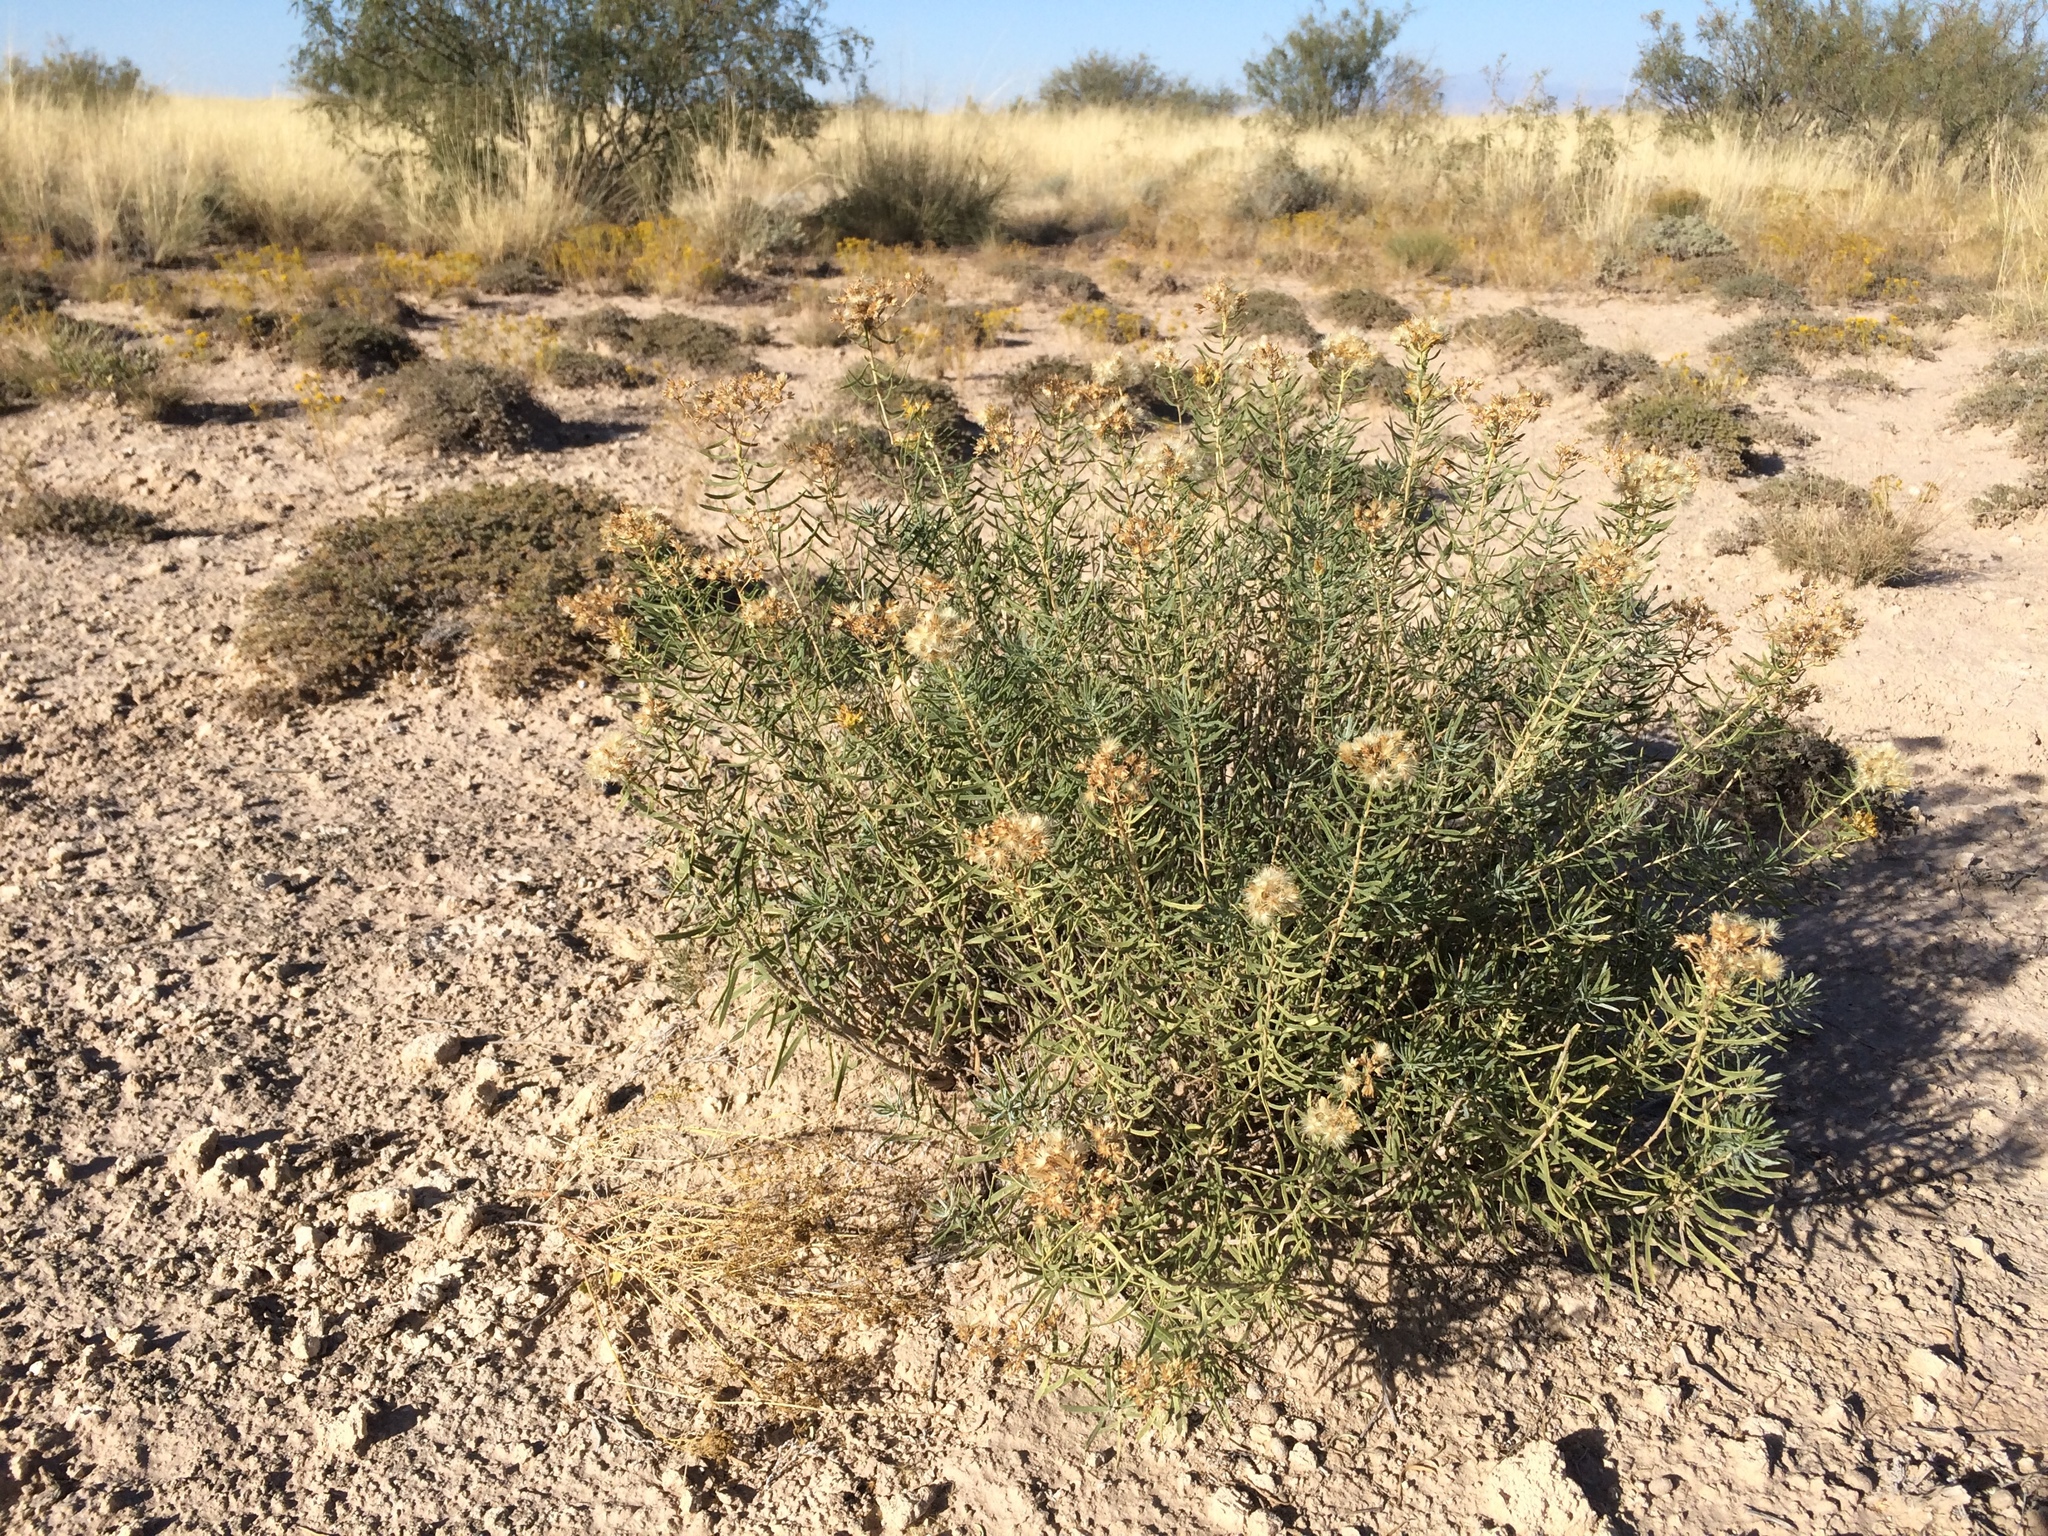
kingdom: Plantae
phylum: Tracheophyta
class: Magnoliopsida
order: Asterales
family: Asteraceae
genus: Isocoma
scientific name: Isocoma pluriflora
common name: Southern jimmyweed
